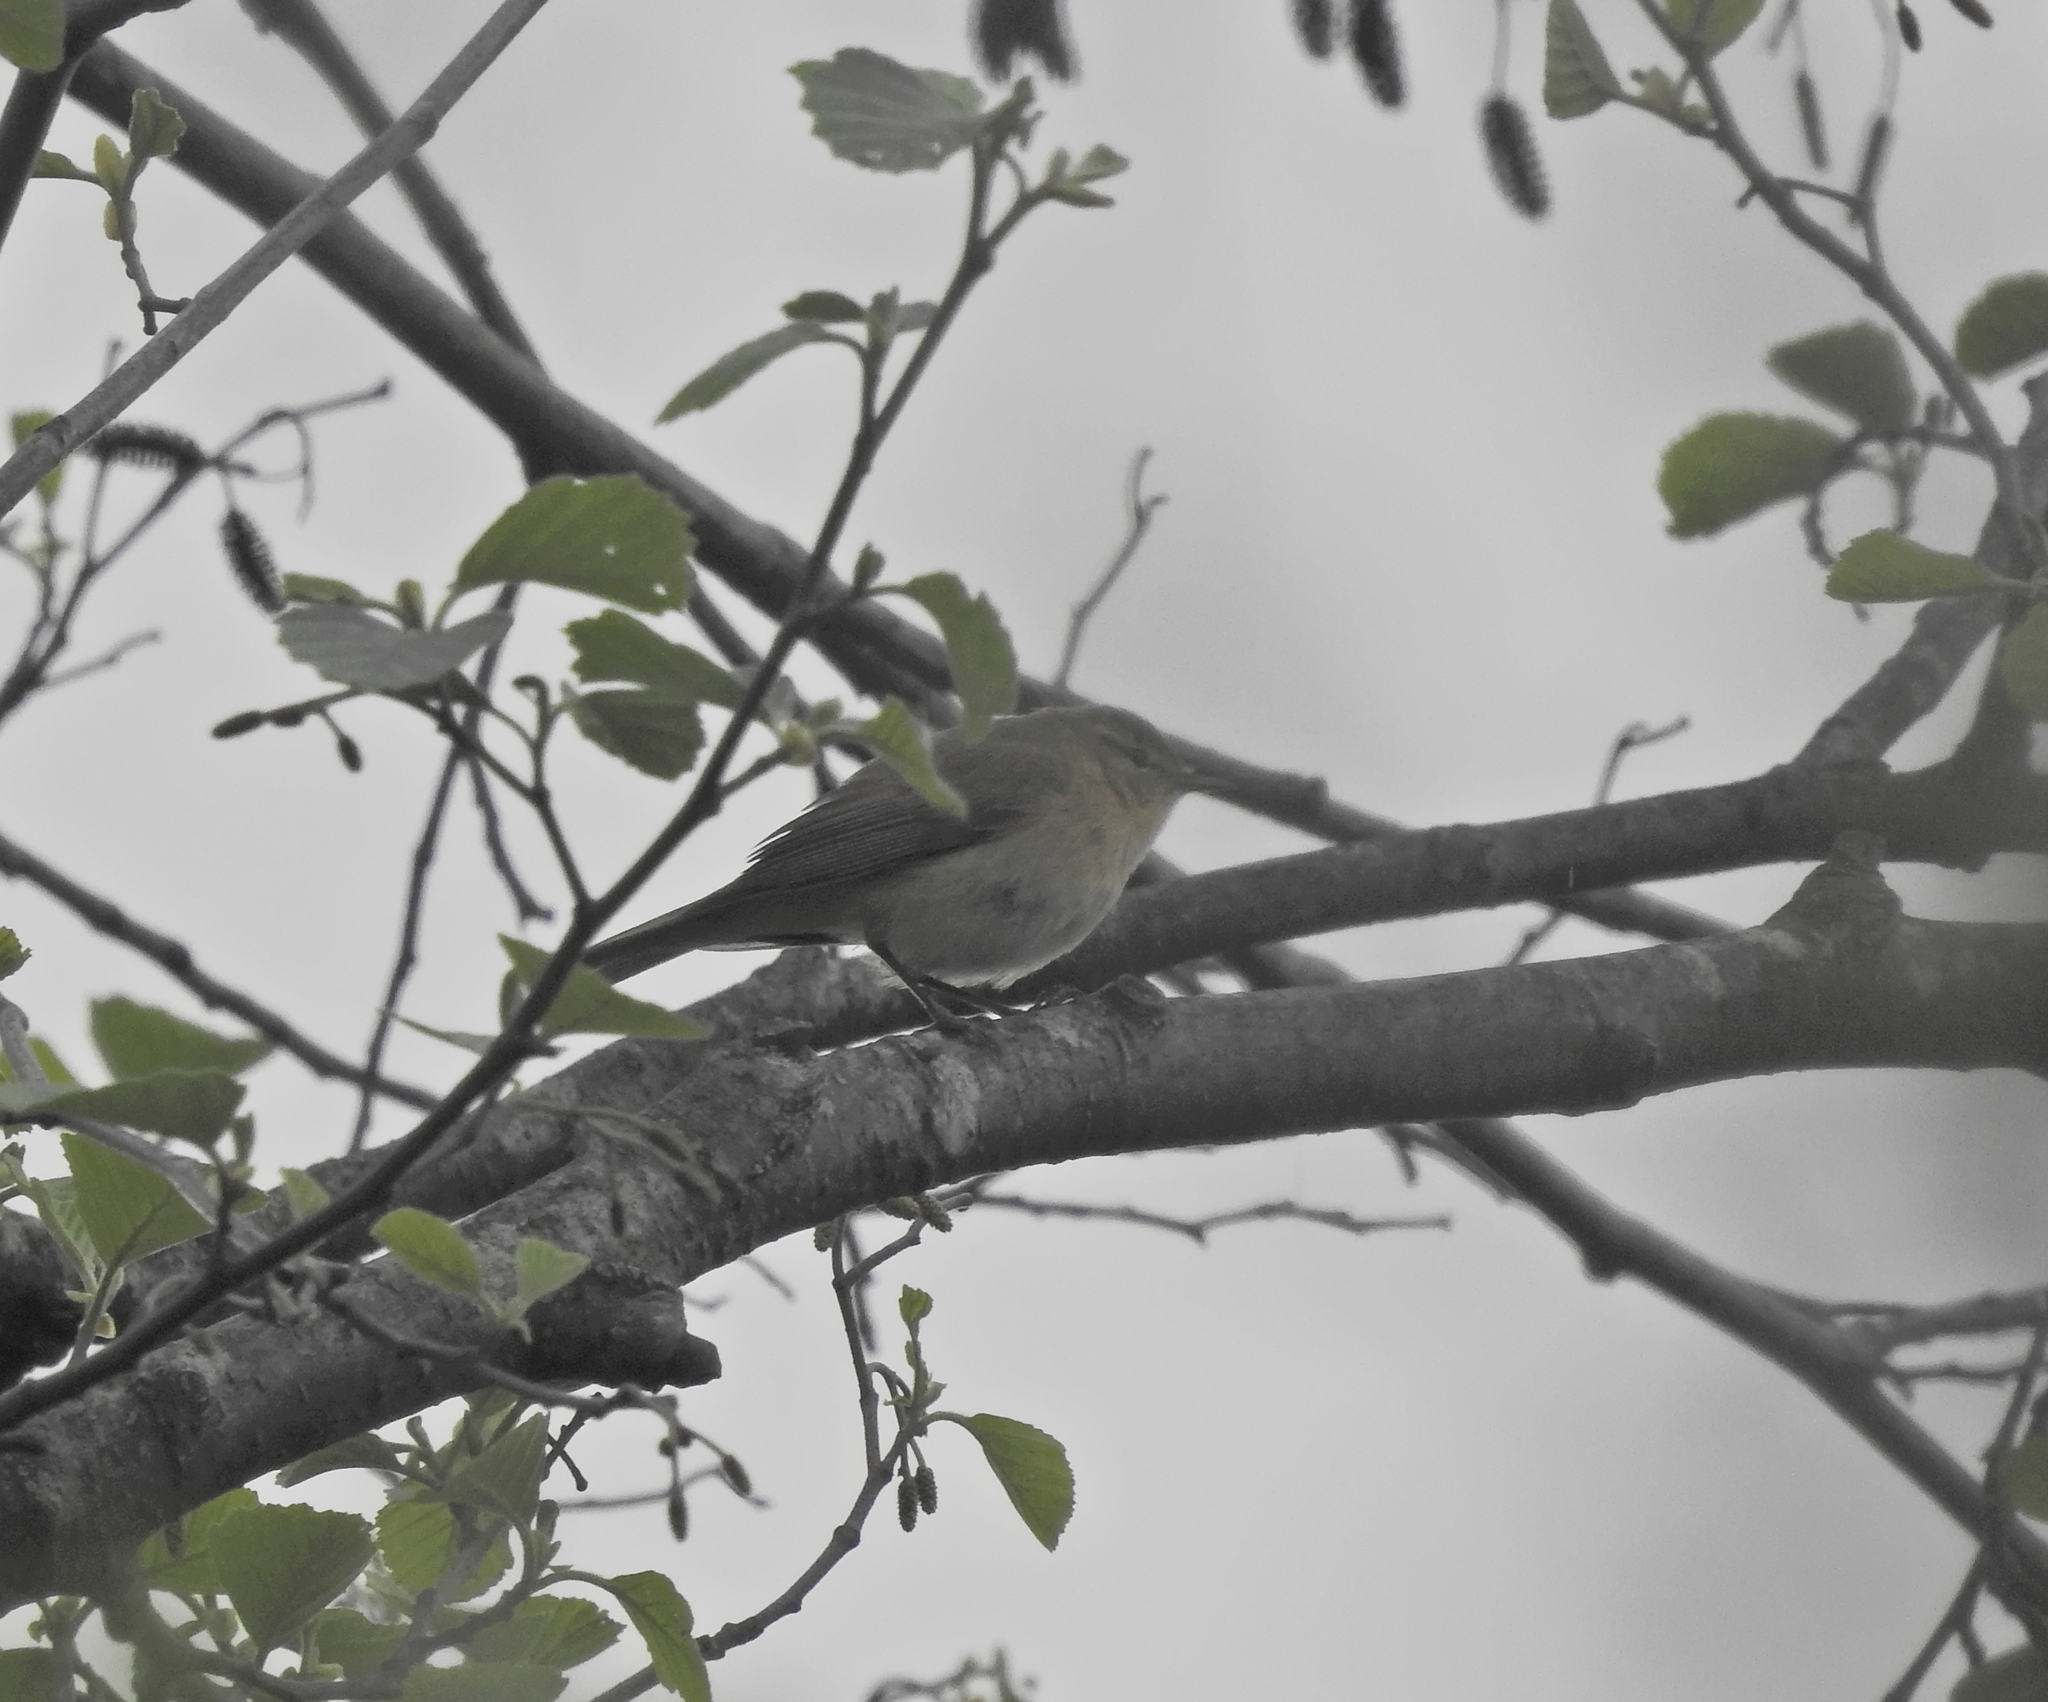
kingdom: Animalia
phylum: Chordata
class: Aves
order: Passeriformes
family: Phylloscopidae
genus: Phylloscopus
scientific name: Phylloscopus ibericus
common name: Iberian chiffchaff
